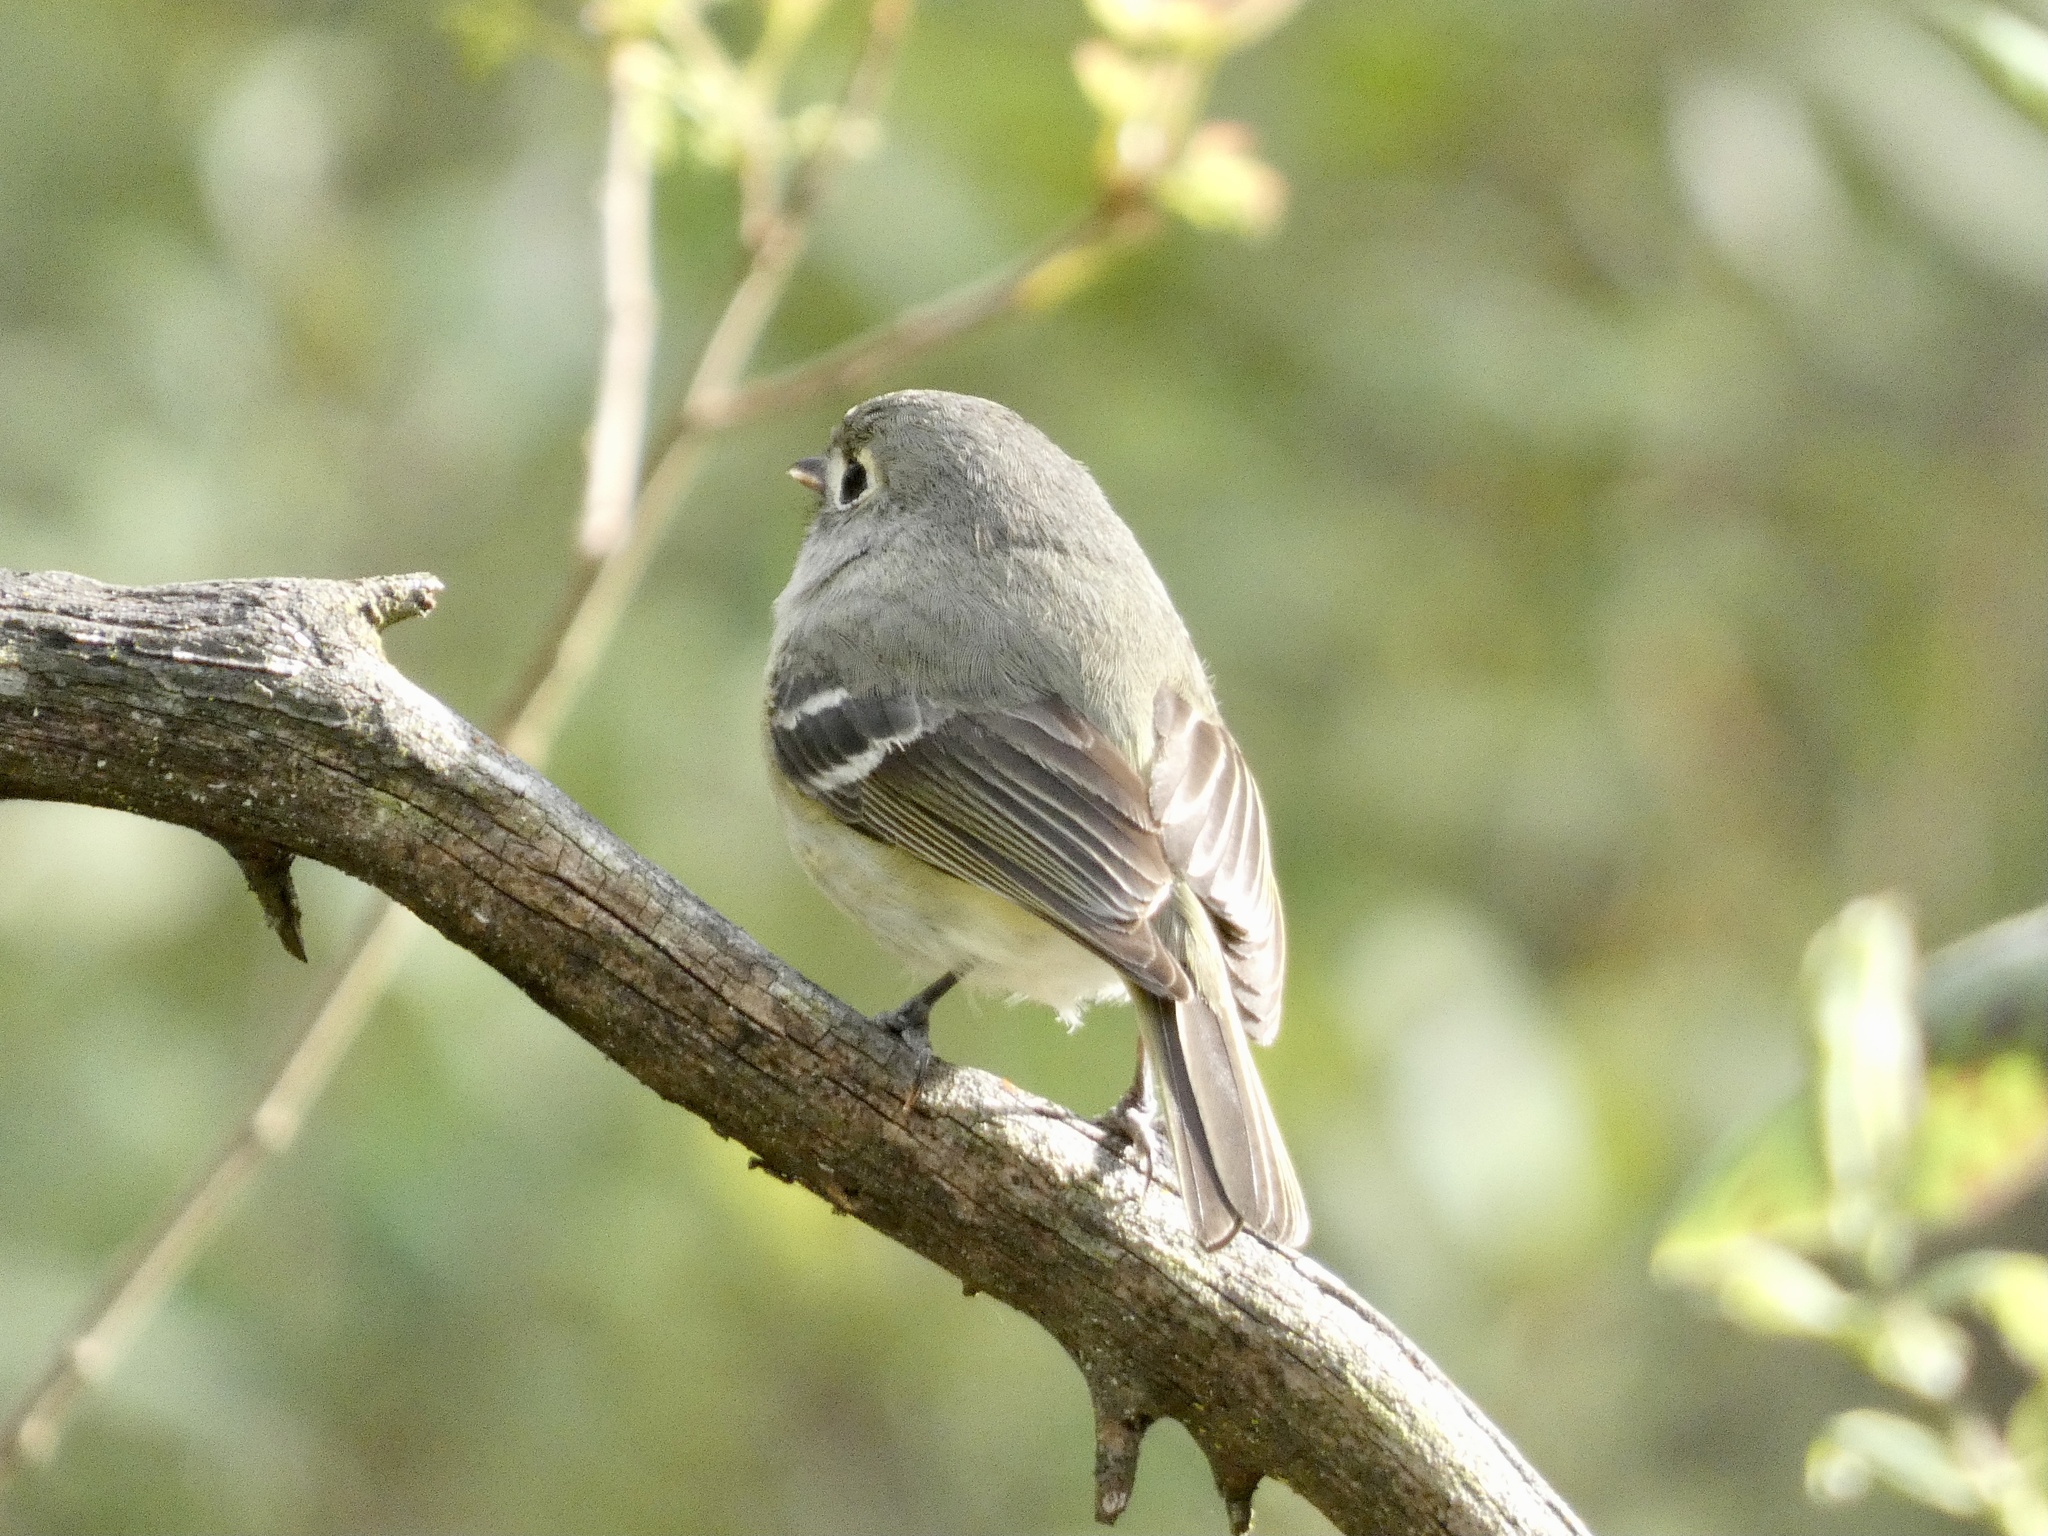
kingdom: Animalia
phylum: Chordata
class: Aves
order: Passeriformes
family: Vireonidae
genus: Vireo
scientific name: Vireo huttoni
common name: Hutton's vireo
